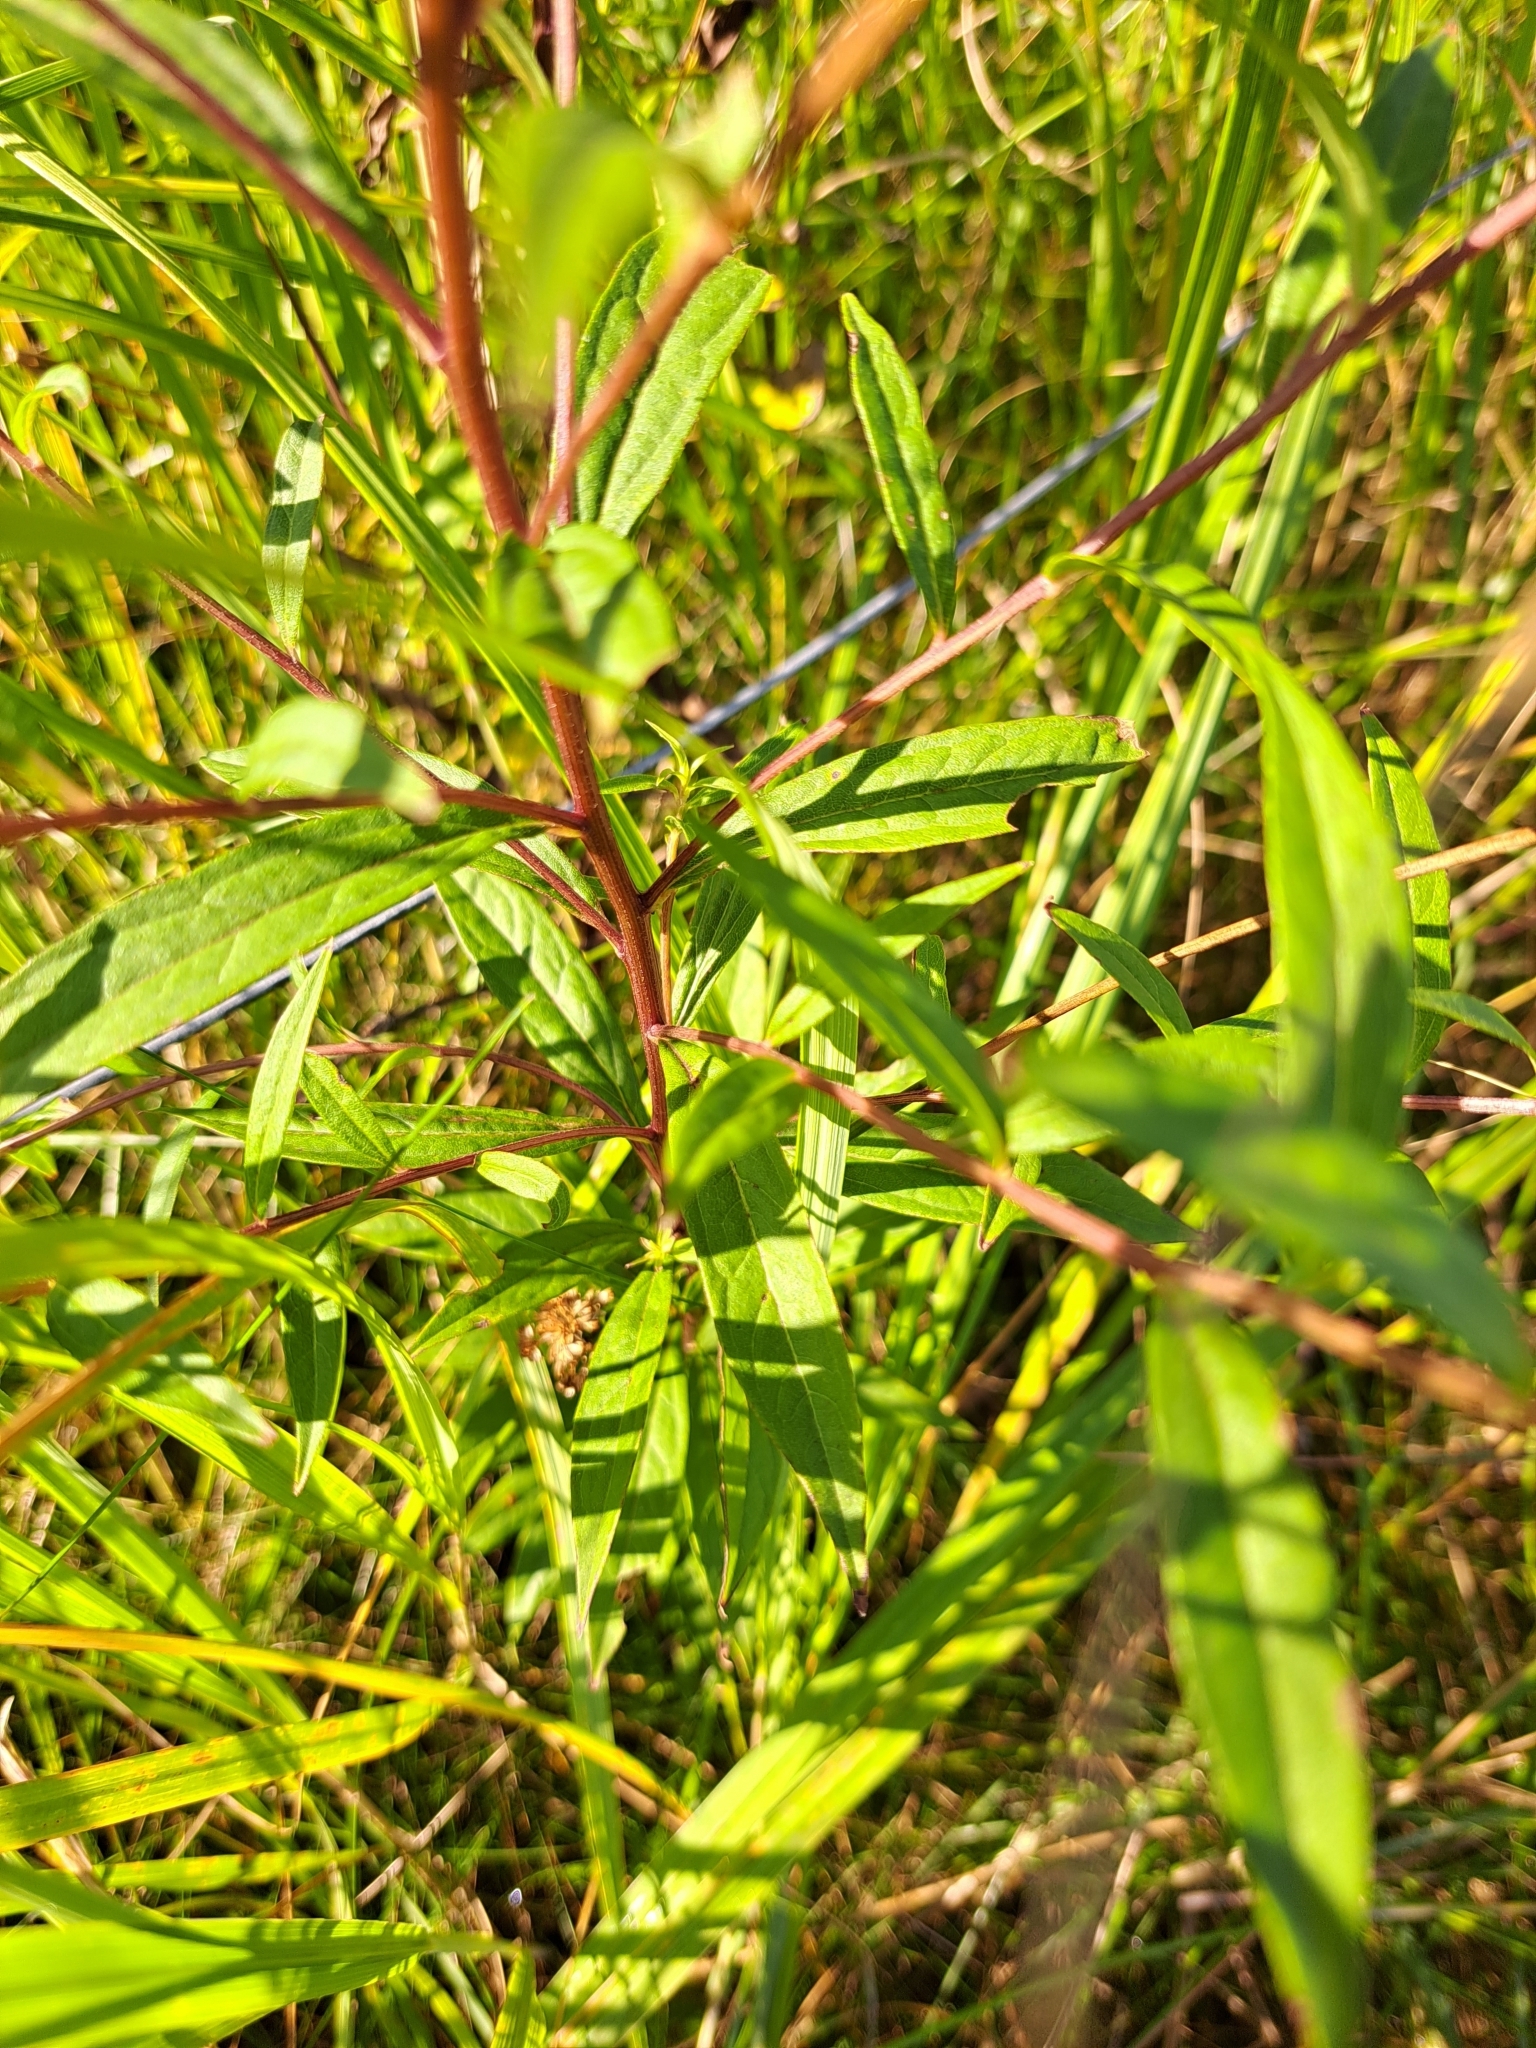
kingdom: Plantae
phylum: Tracheophyta
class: Magnoliopsida
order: Asterales
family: Asteraceae
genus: Doellingeria
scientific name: Doellingeria umbellata
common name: Flat-top white aster
